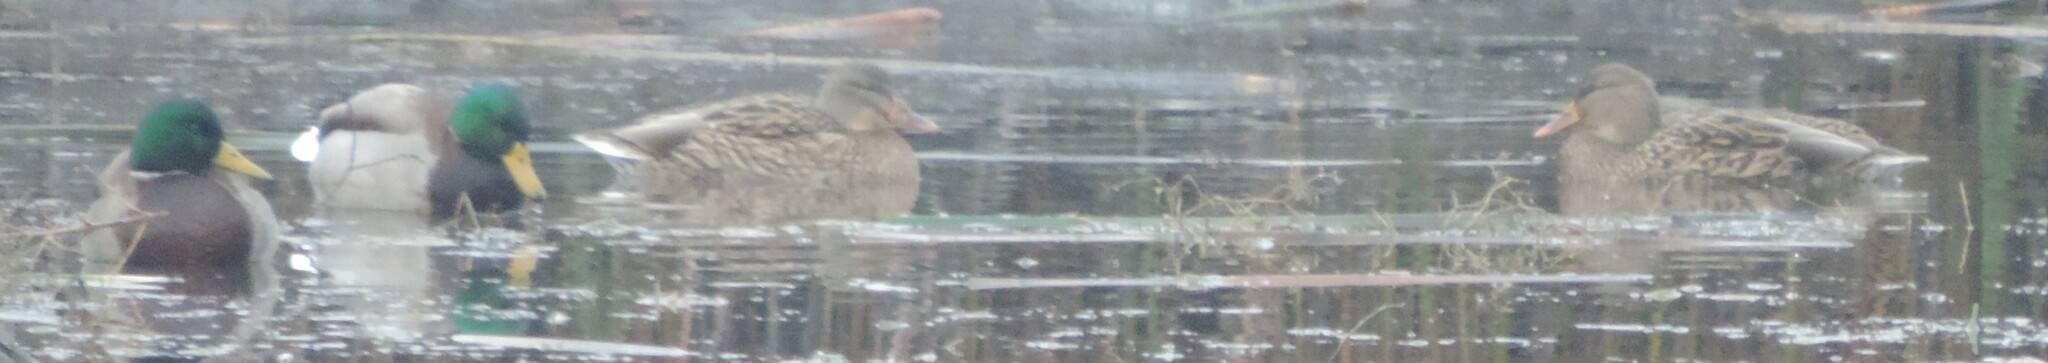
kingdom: Animalia
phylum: Chordata
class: Aves
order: Anseriformes
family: Anatidae
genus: Anas
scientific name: Anas platyrhynchos
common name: Mallard
